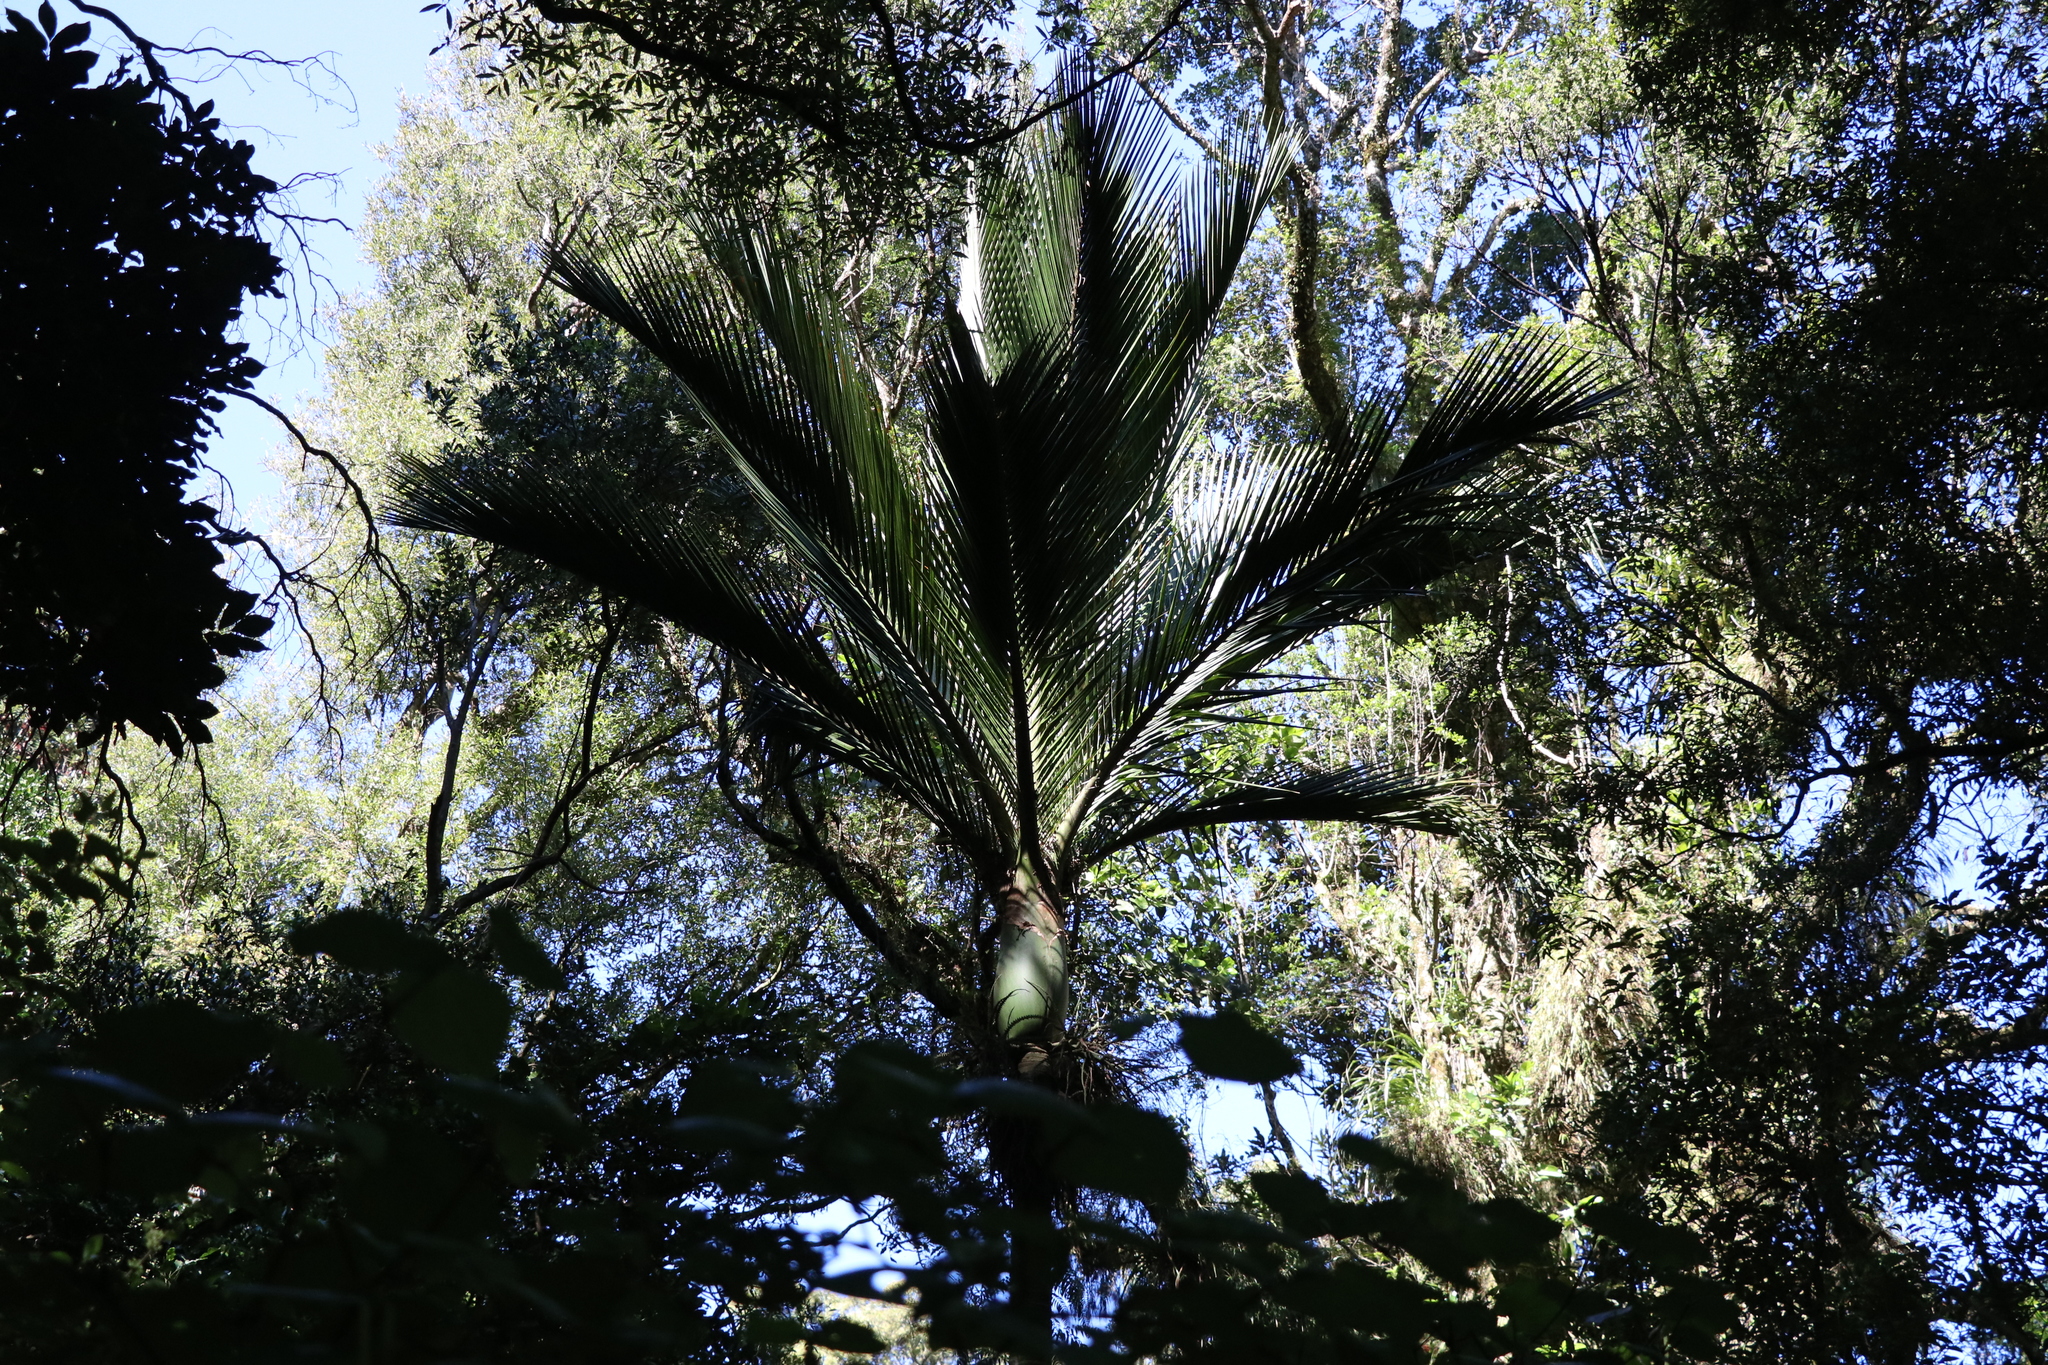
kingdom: Plantae
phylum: Tracheophyta
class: Liliopsida
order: Arecales
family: Arecaceae
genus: Rhopalostylis
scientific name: Rhopalostylis sapida
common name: Feather-duster palm
